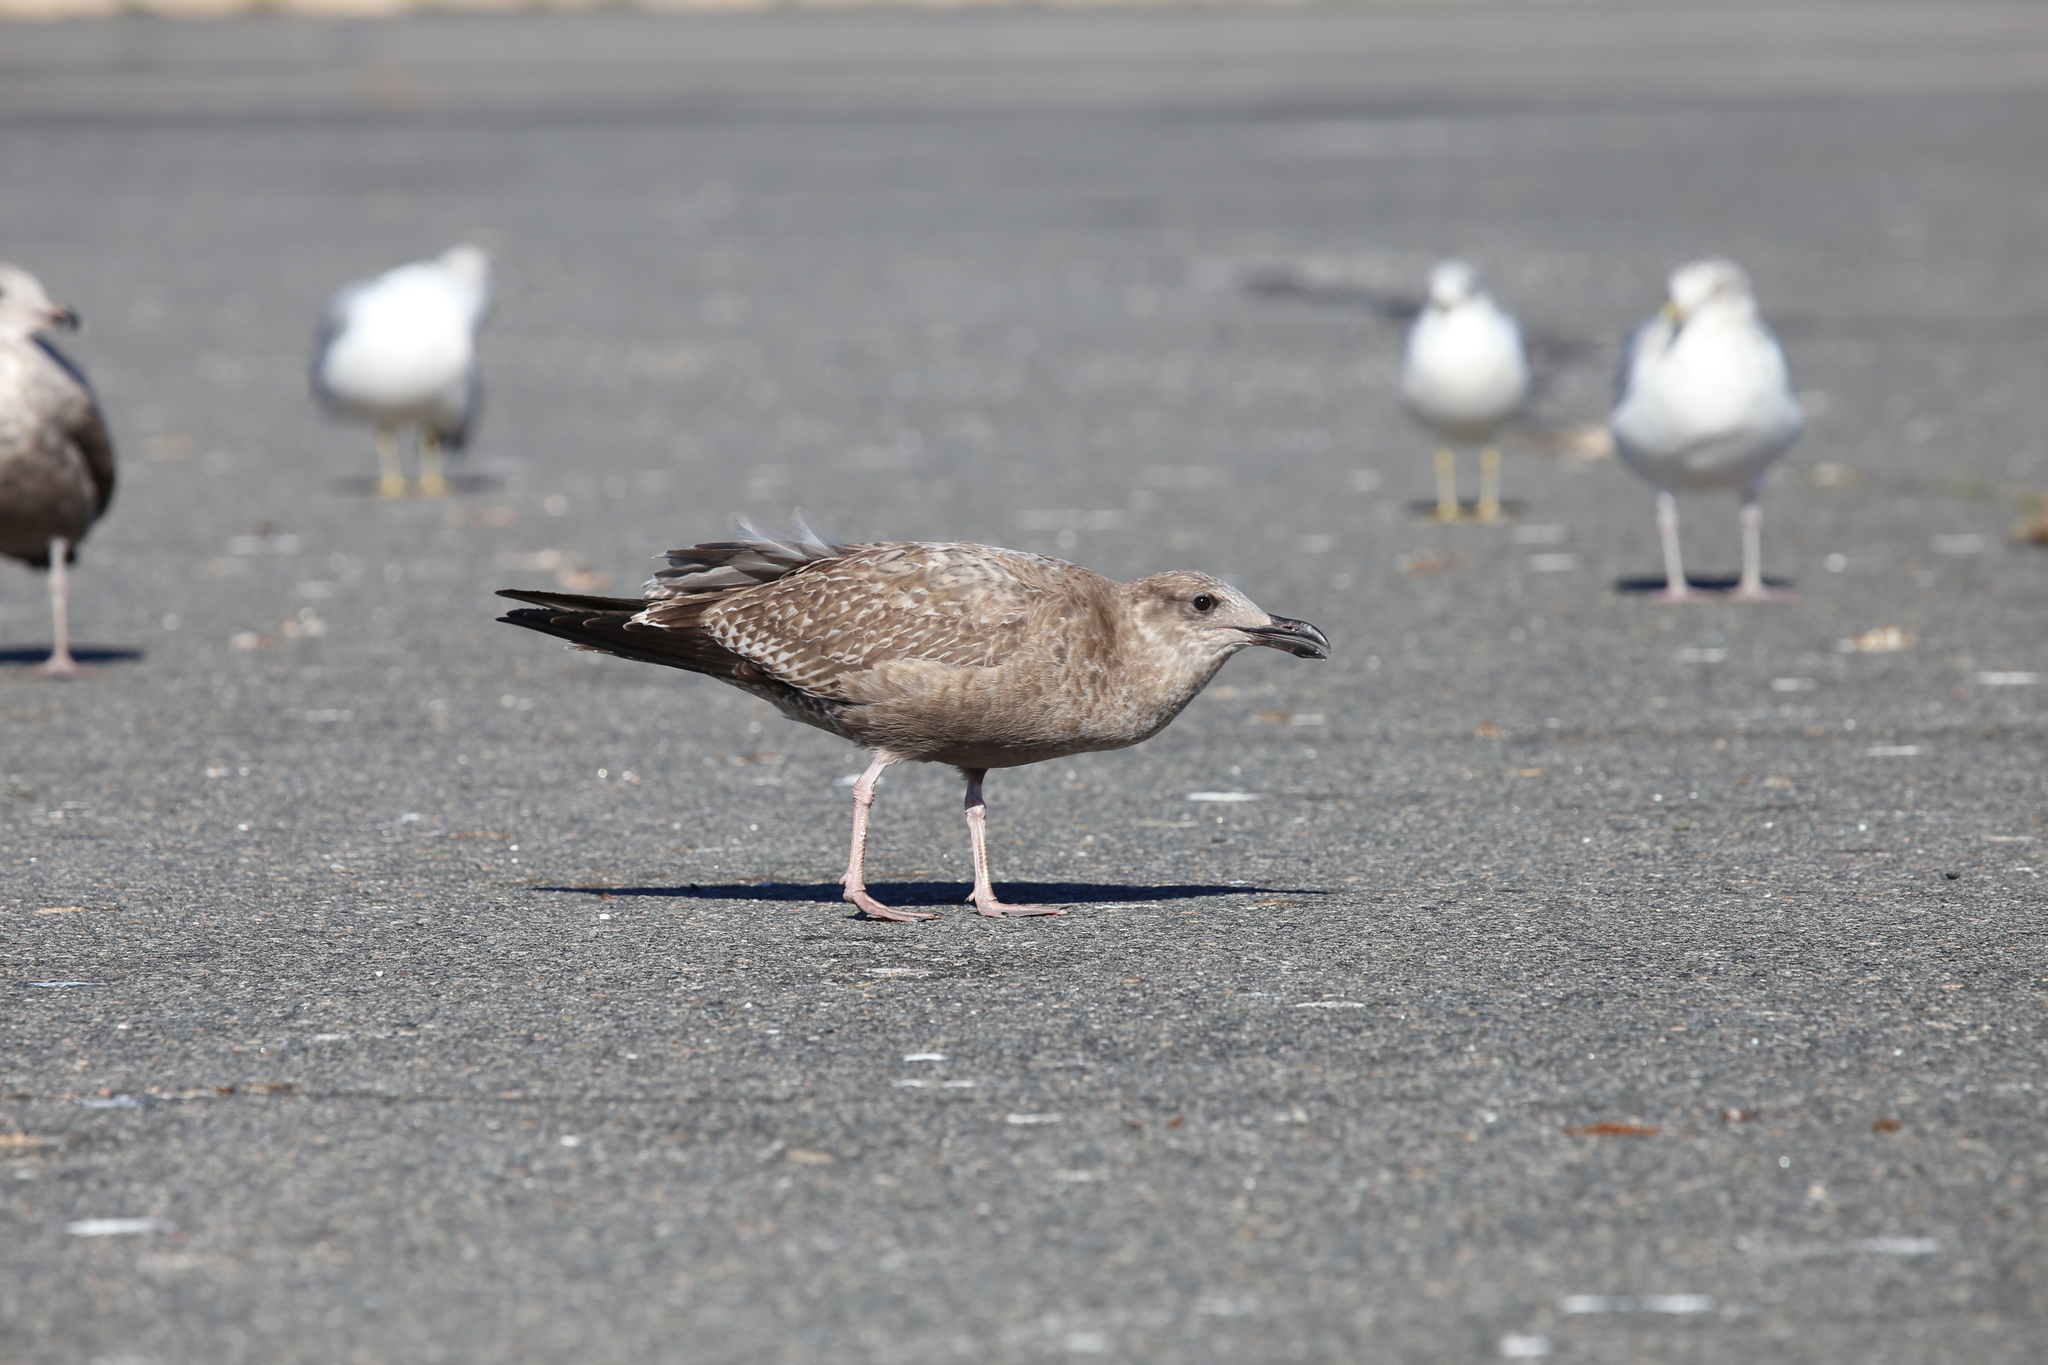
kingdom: Animalia
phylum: Chordata
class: Aves
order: Charadriiformes
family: Laridae
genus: Larus
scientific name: Larus argentatus
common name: Herring gull
